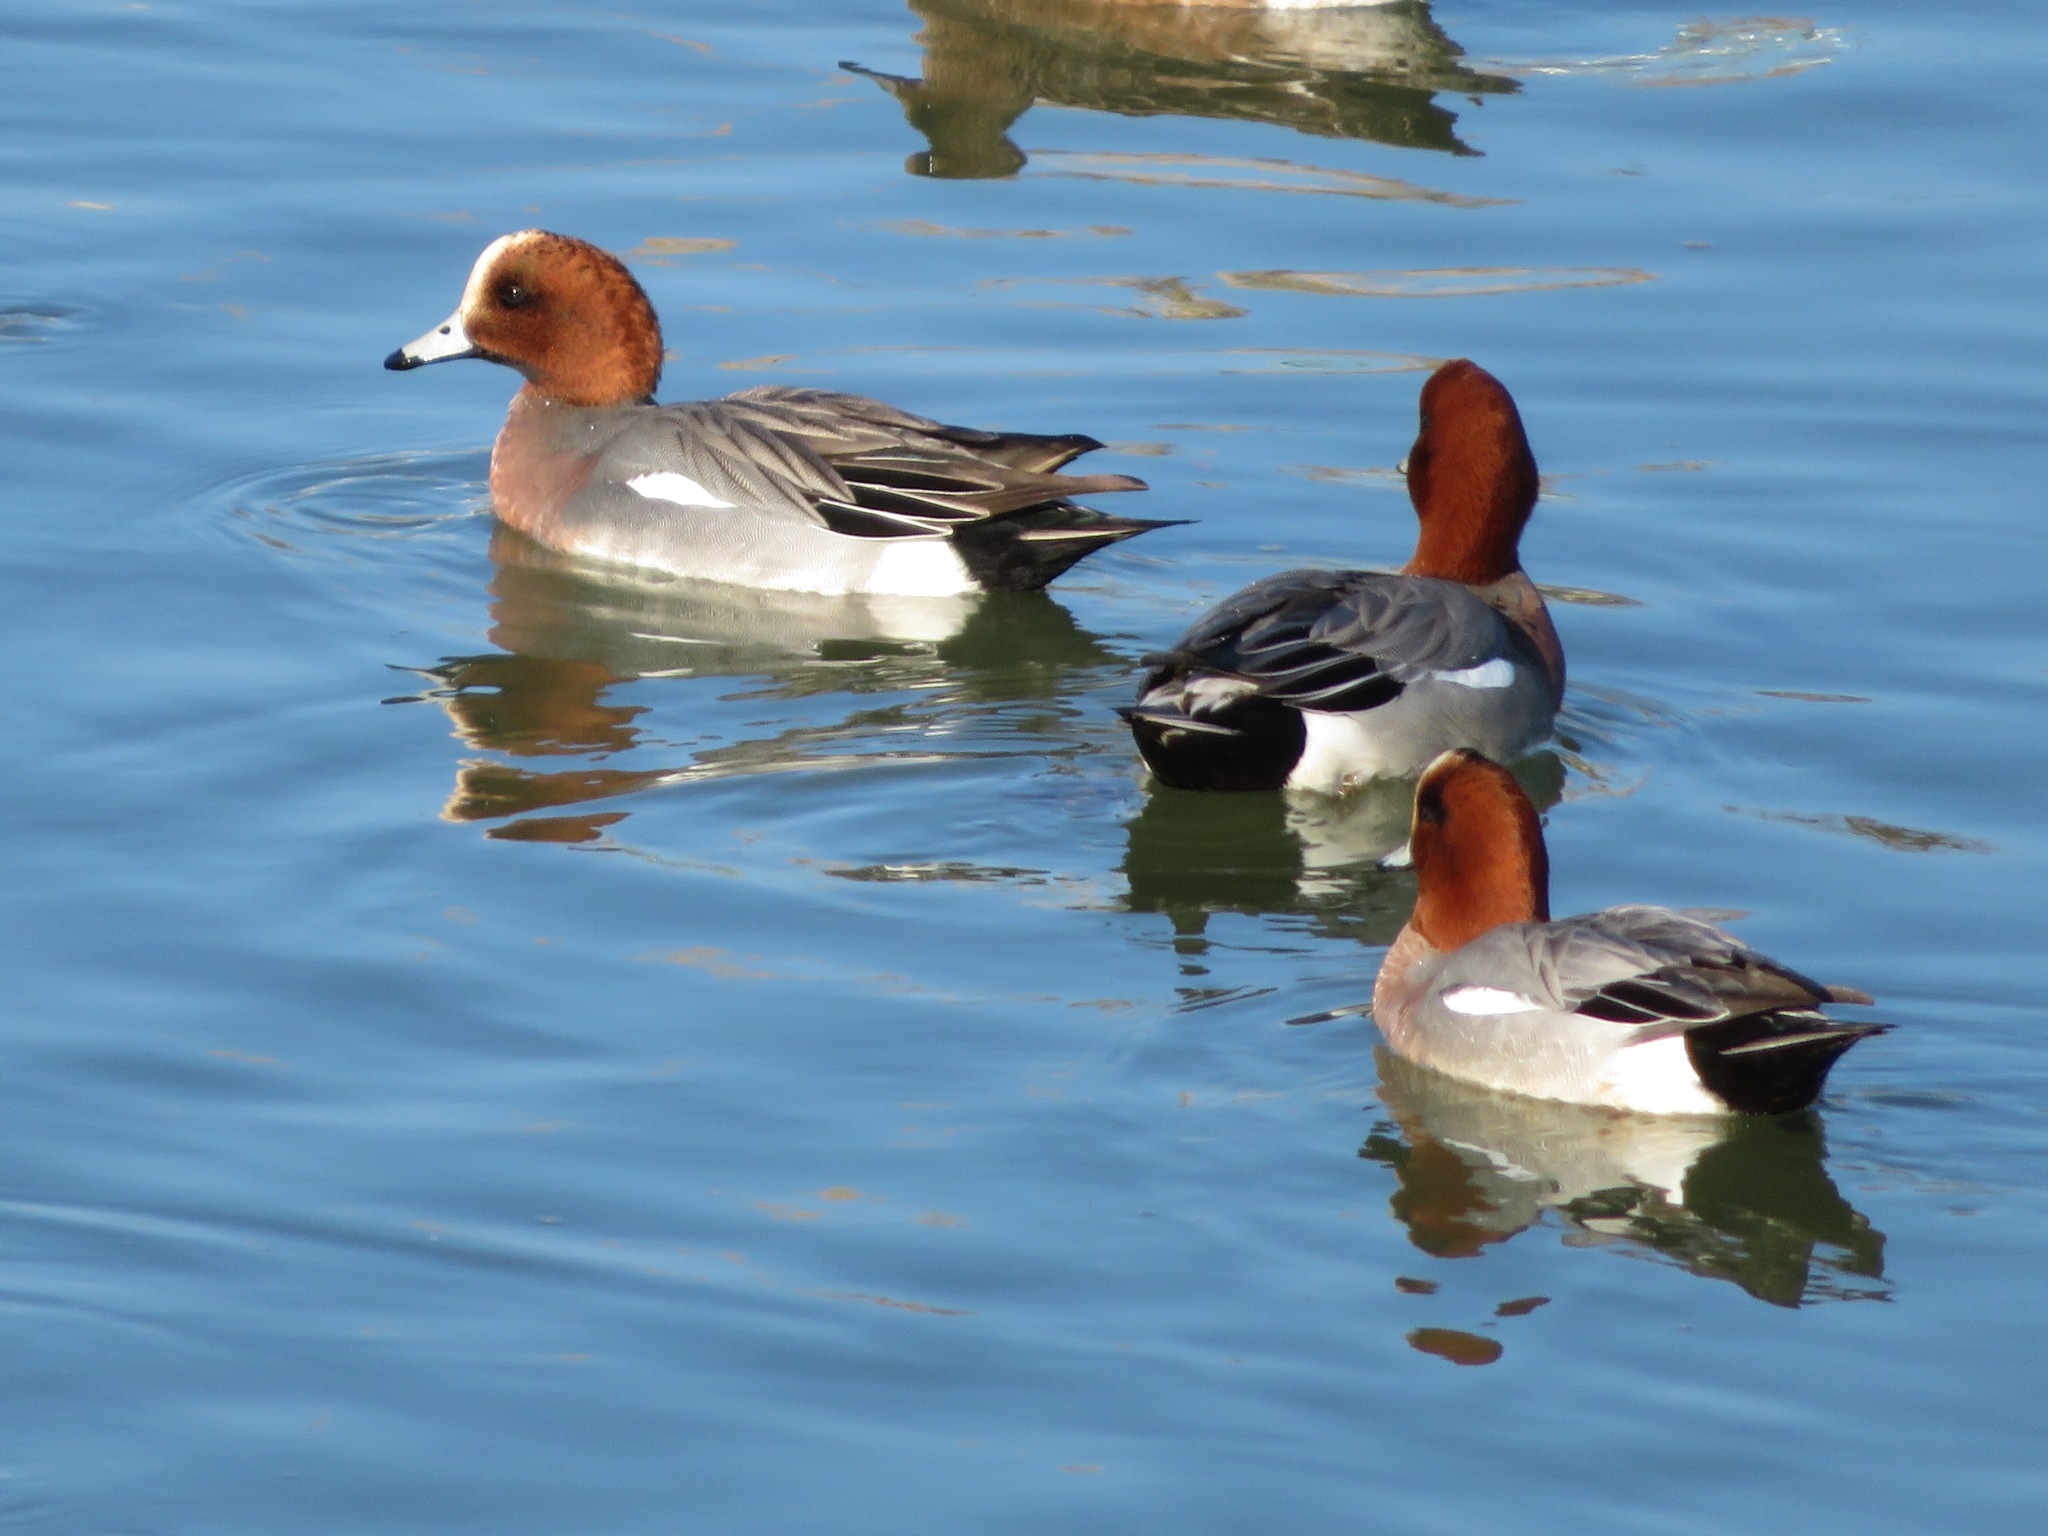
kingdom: Animalia
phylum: Chordata
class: Aves
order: Anseriformes
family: Anatidae
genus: Mareca
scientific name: Mareca penelope
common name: Eurasian wigeon
